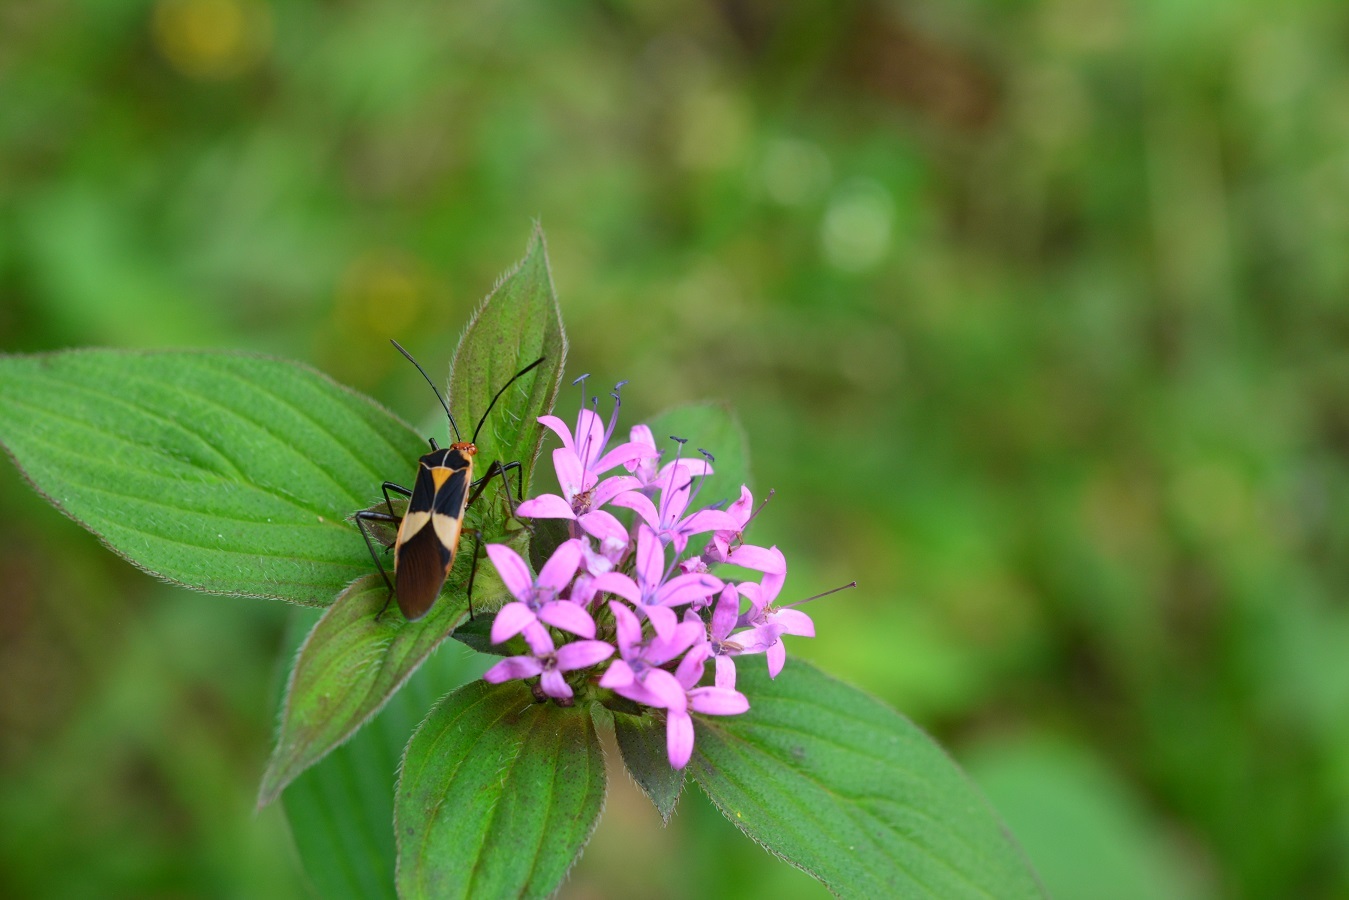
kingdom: Animalia
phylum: Arthropoda
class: Insecta
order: Hemiptera
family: Coreidae
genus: Hypselonotus
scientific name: Hypselonotus interruptus
